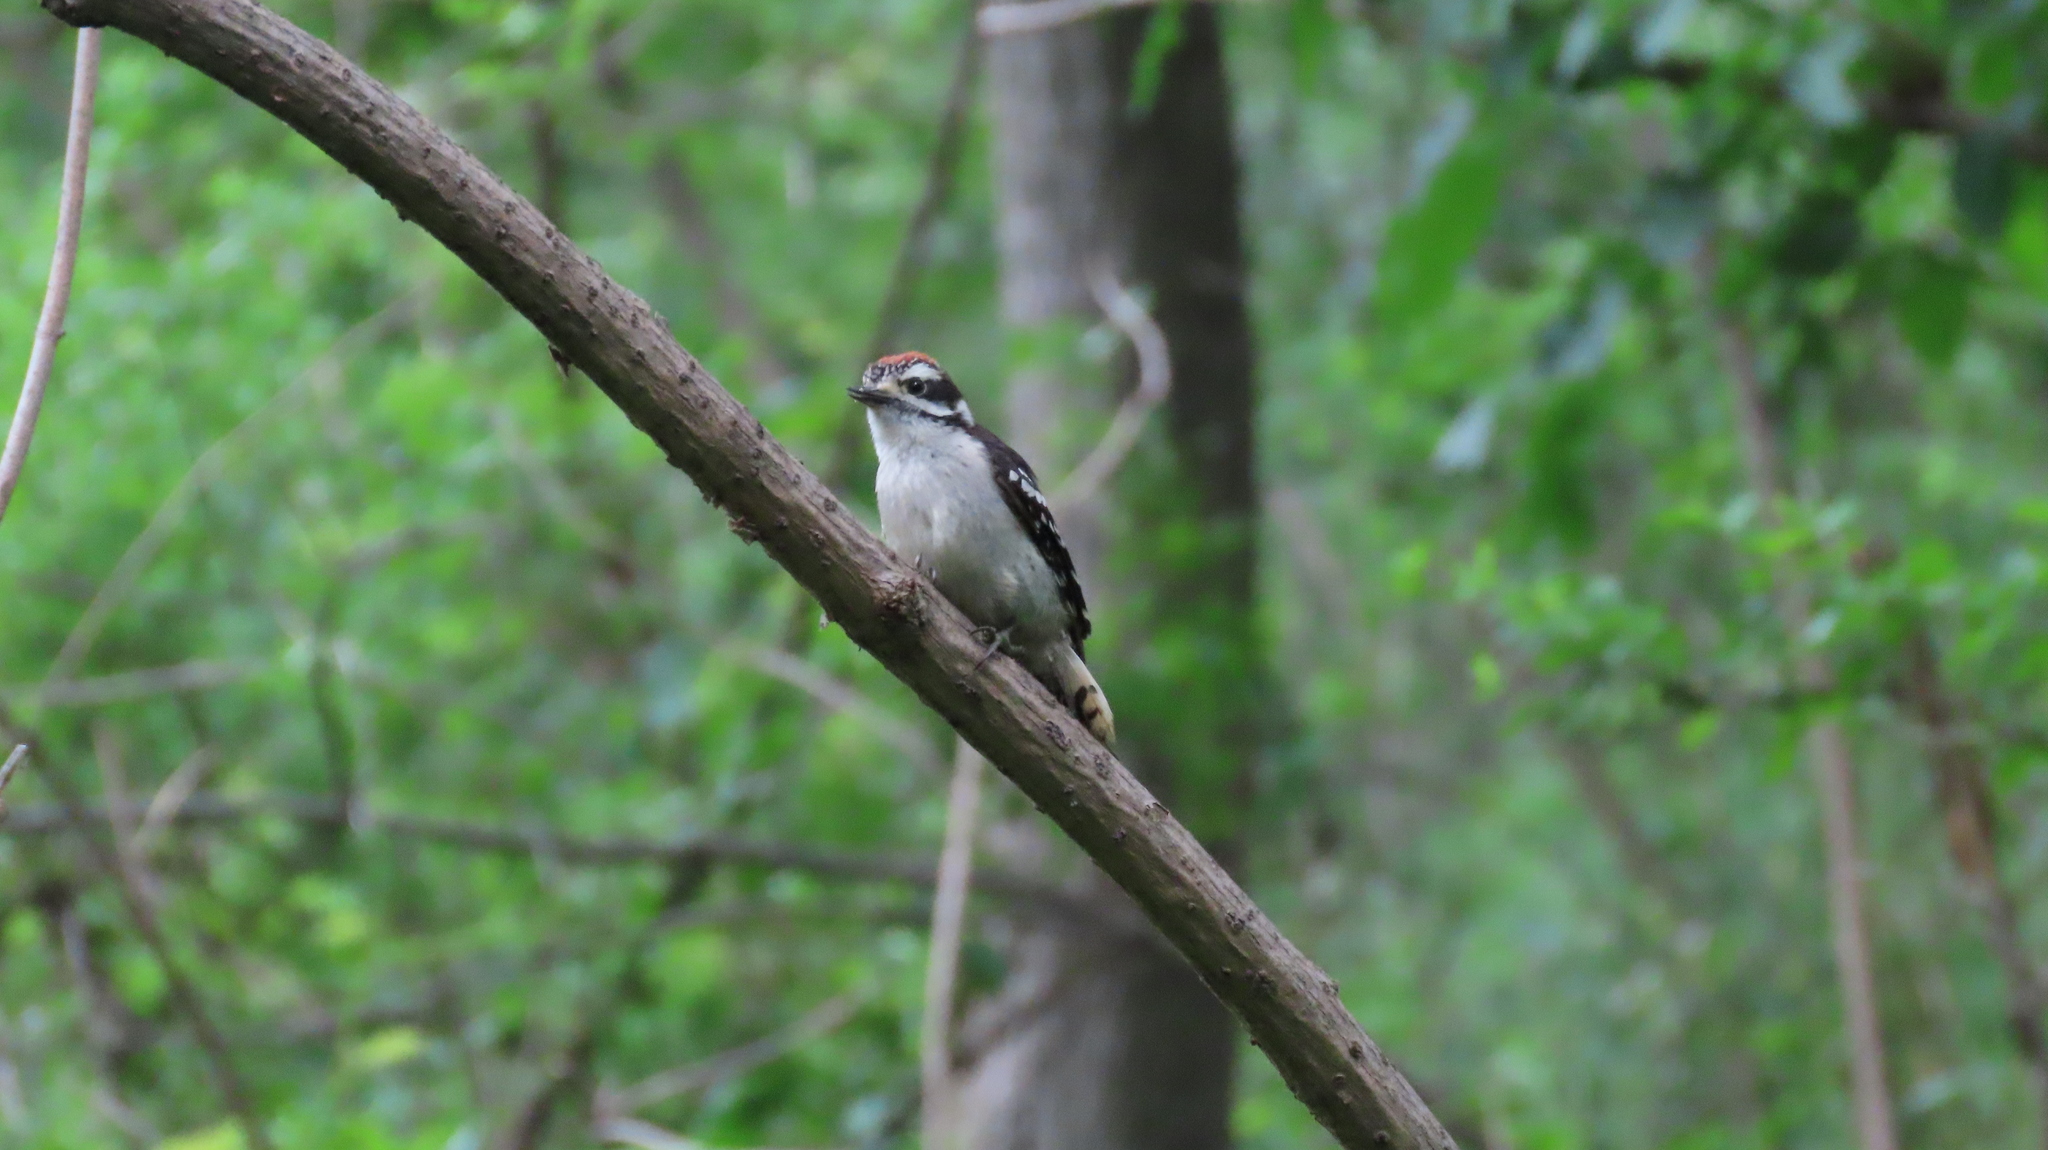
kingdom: Animalia
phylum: Chordata
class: Aves
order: Piciformes
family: Picidae
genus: Dryobates
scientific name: Dryobates pubescens
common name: Downy woodpecker
